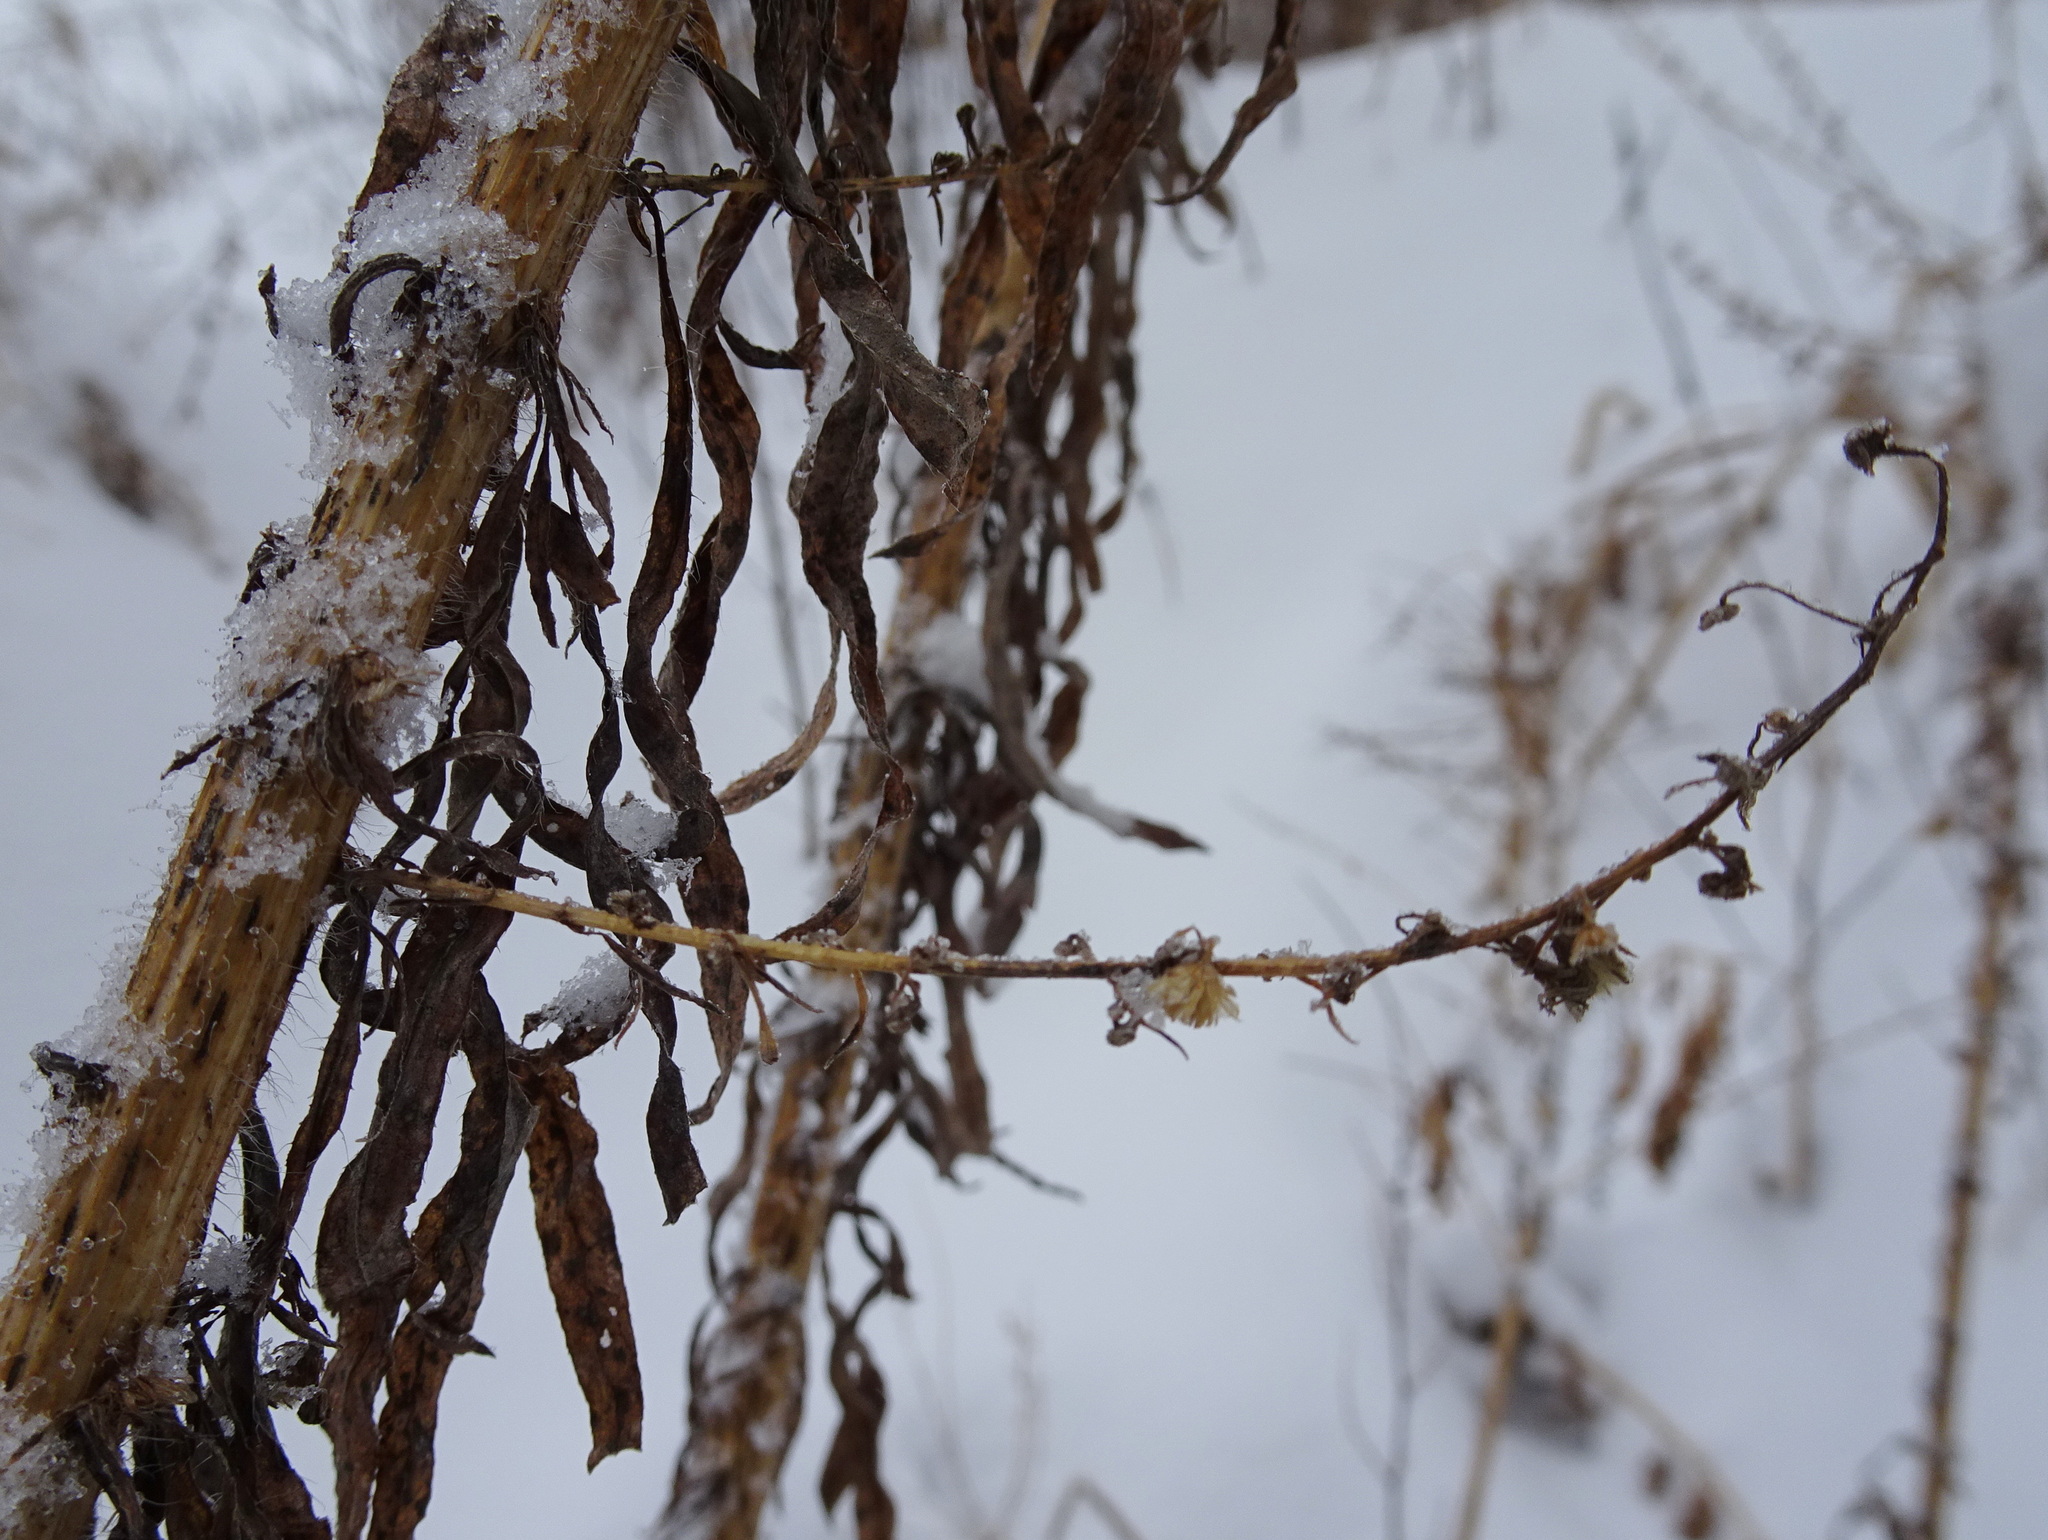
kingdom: Plantae
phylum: Tracheophyta
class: Magnoliopsida
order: Asterales
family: Asteraceae
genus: Erigeron
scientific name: Erigeron canadensis
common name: Canadian fleabane
